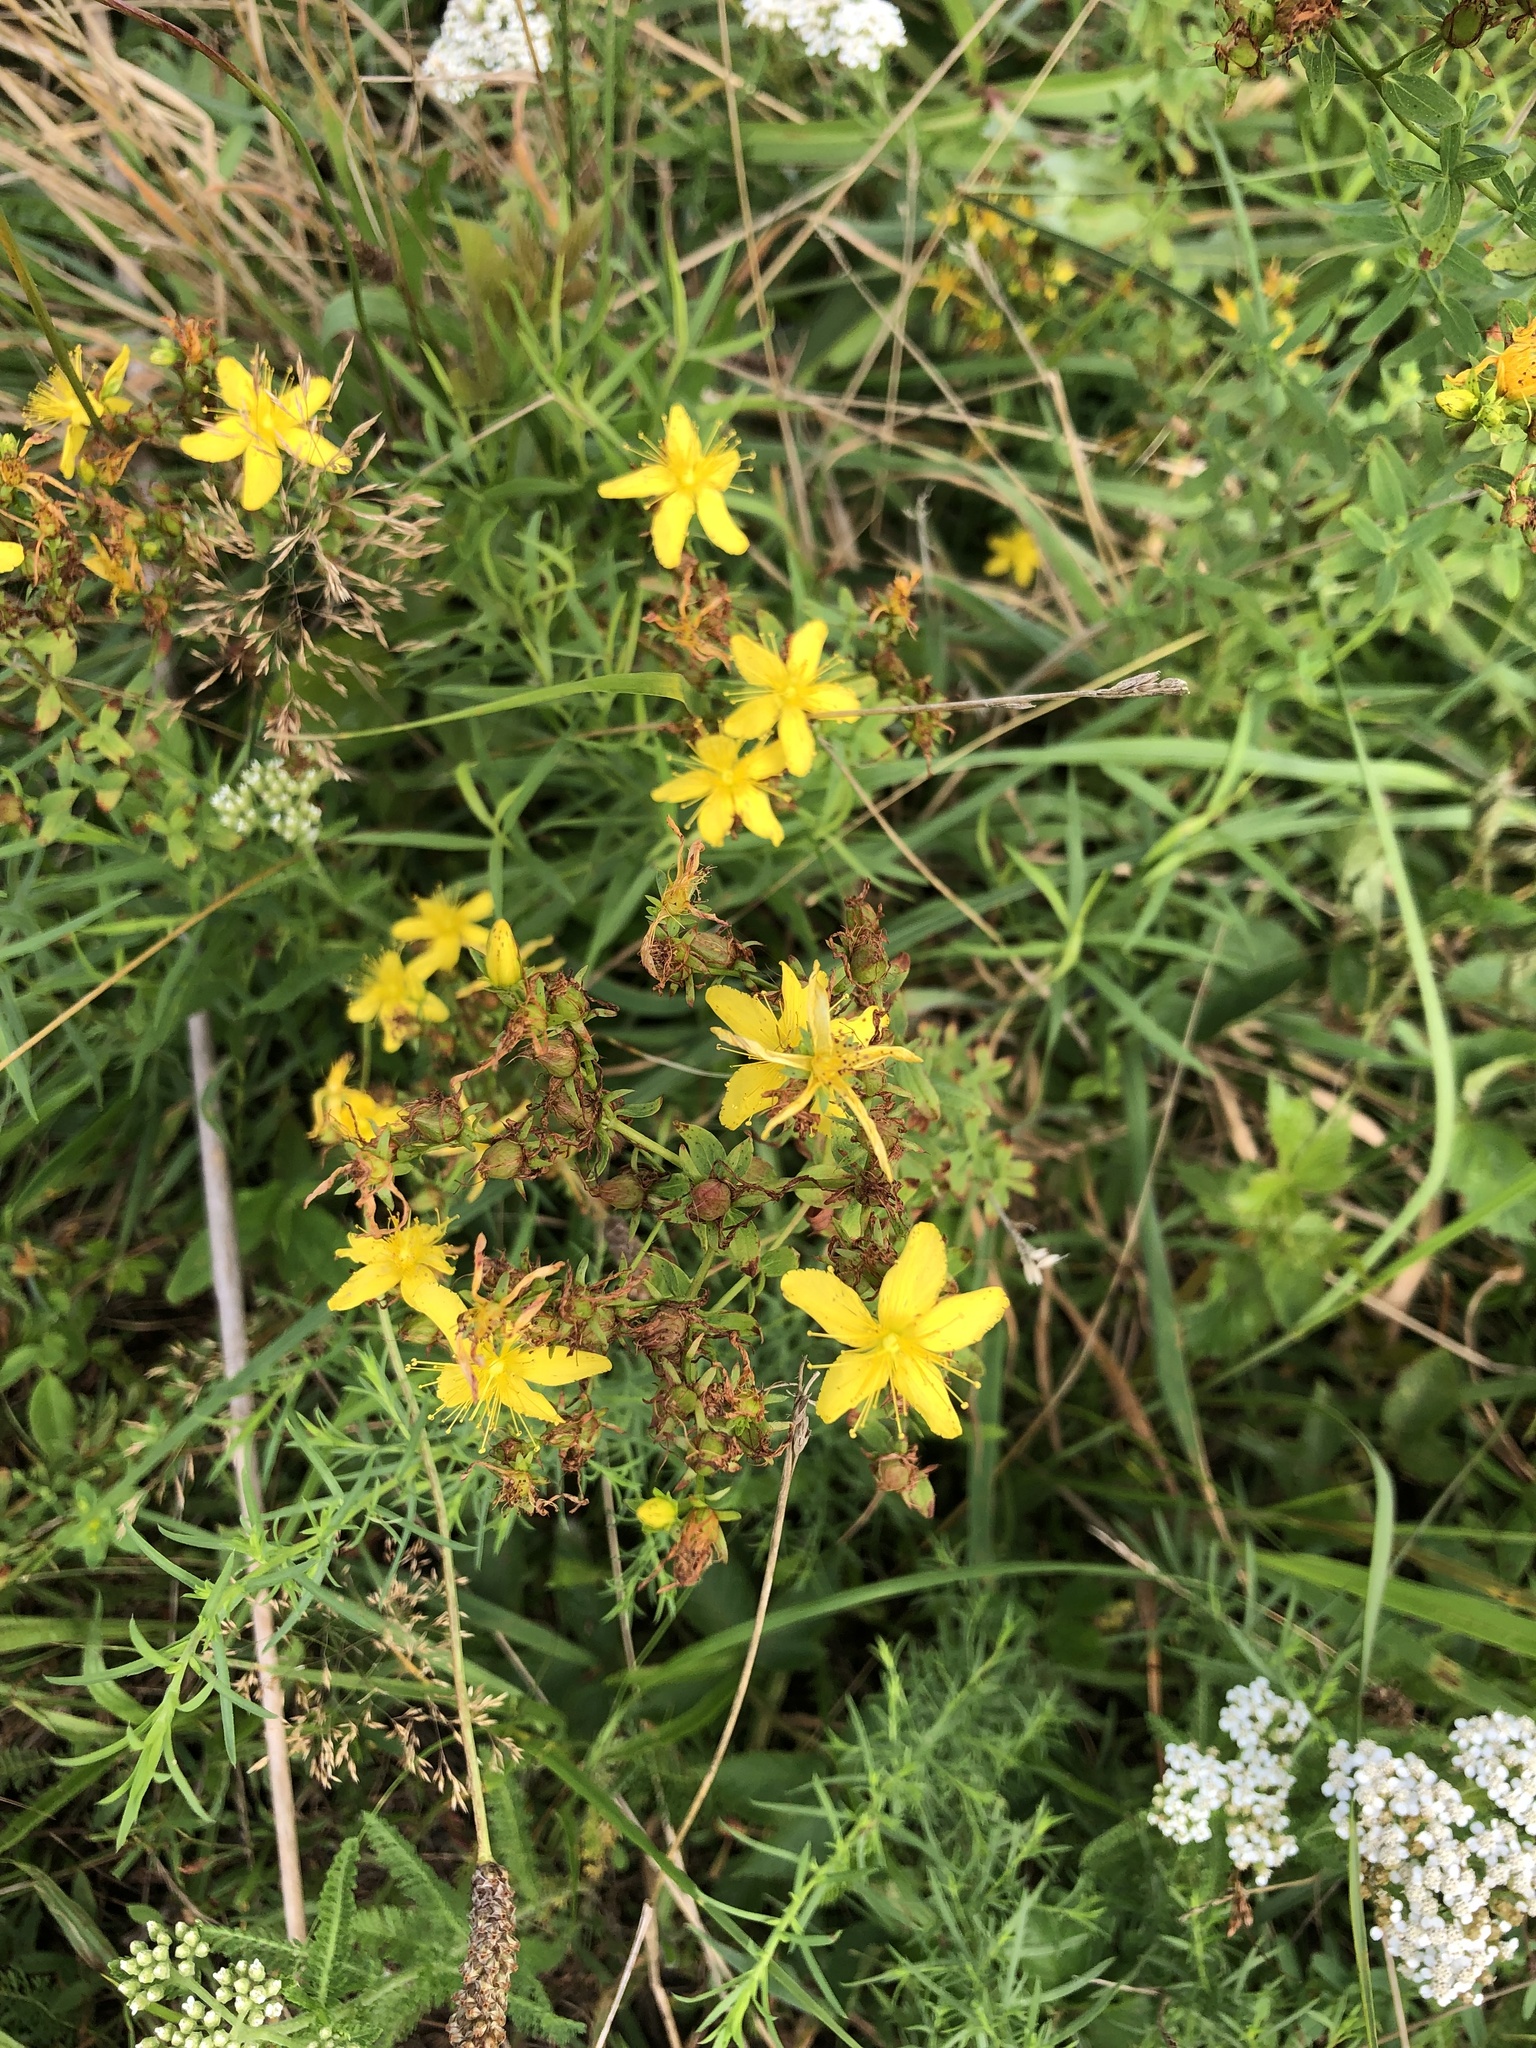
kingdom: Plantae
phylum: Tracheophyta
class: Magnoliopsida
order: Malpighiales
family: Hypericaceae
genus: Hypericum
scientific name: Hypericum perforatum
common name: Common st. johnswort
